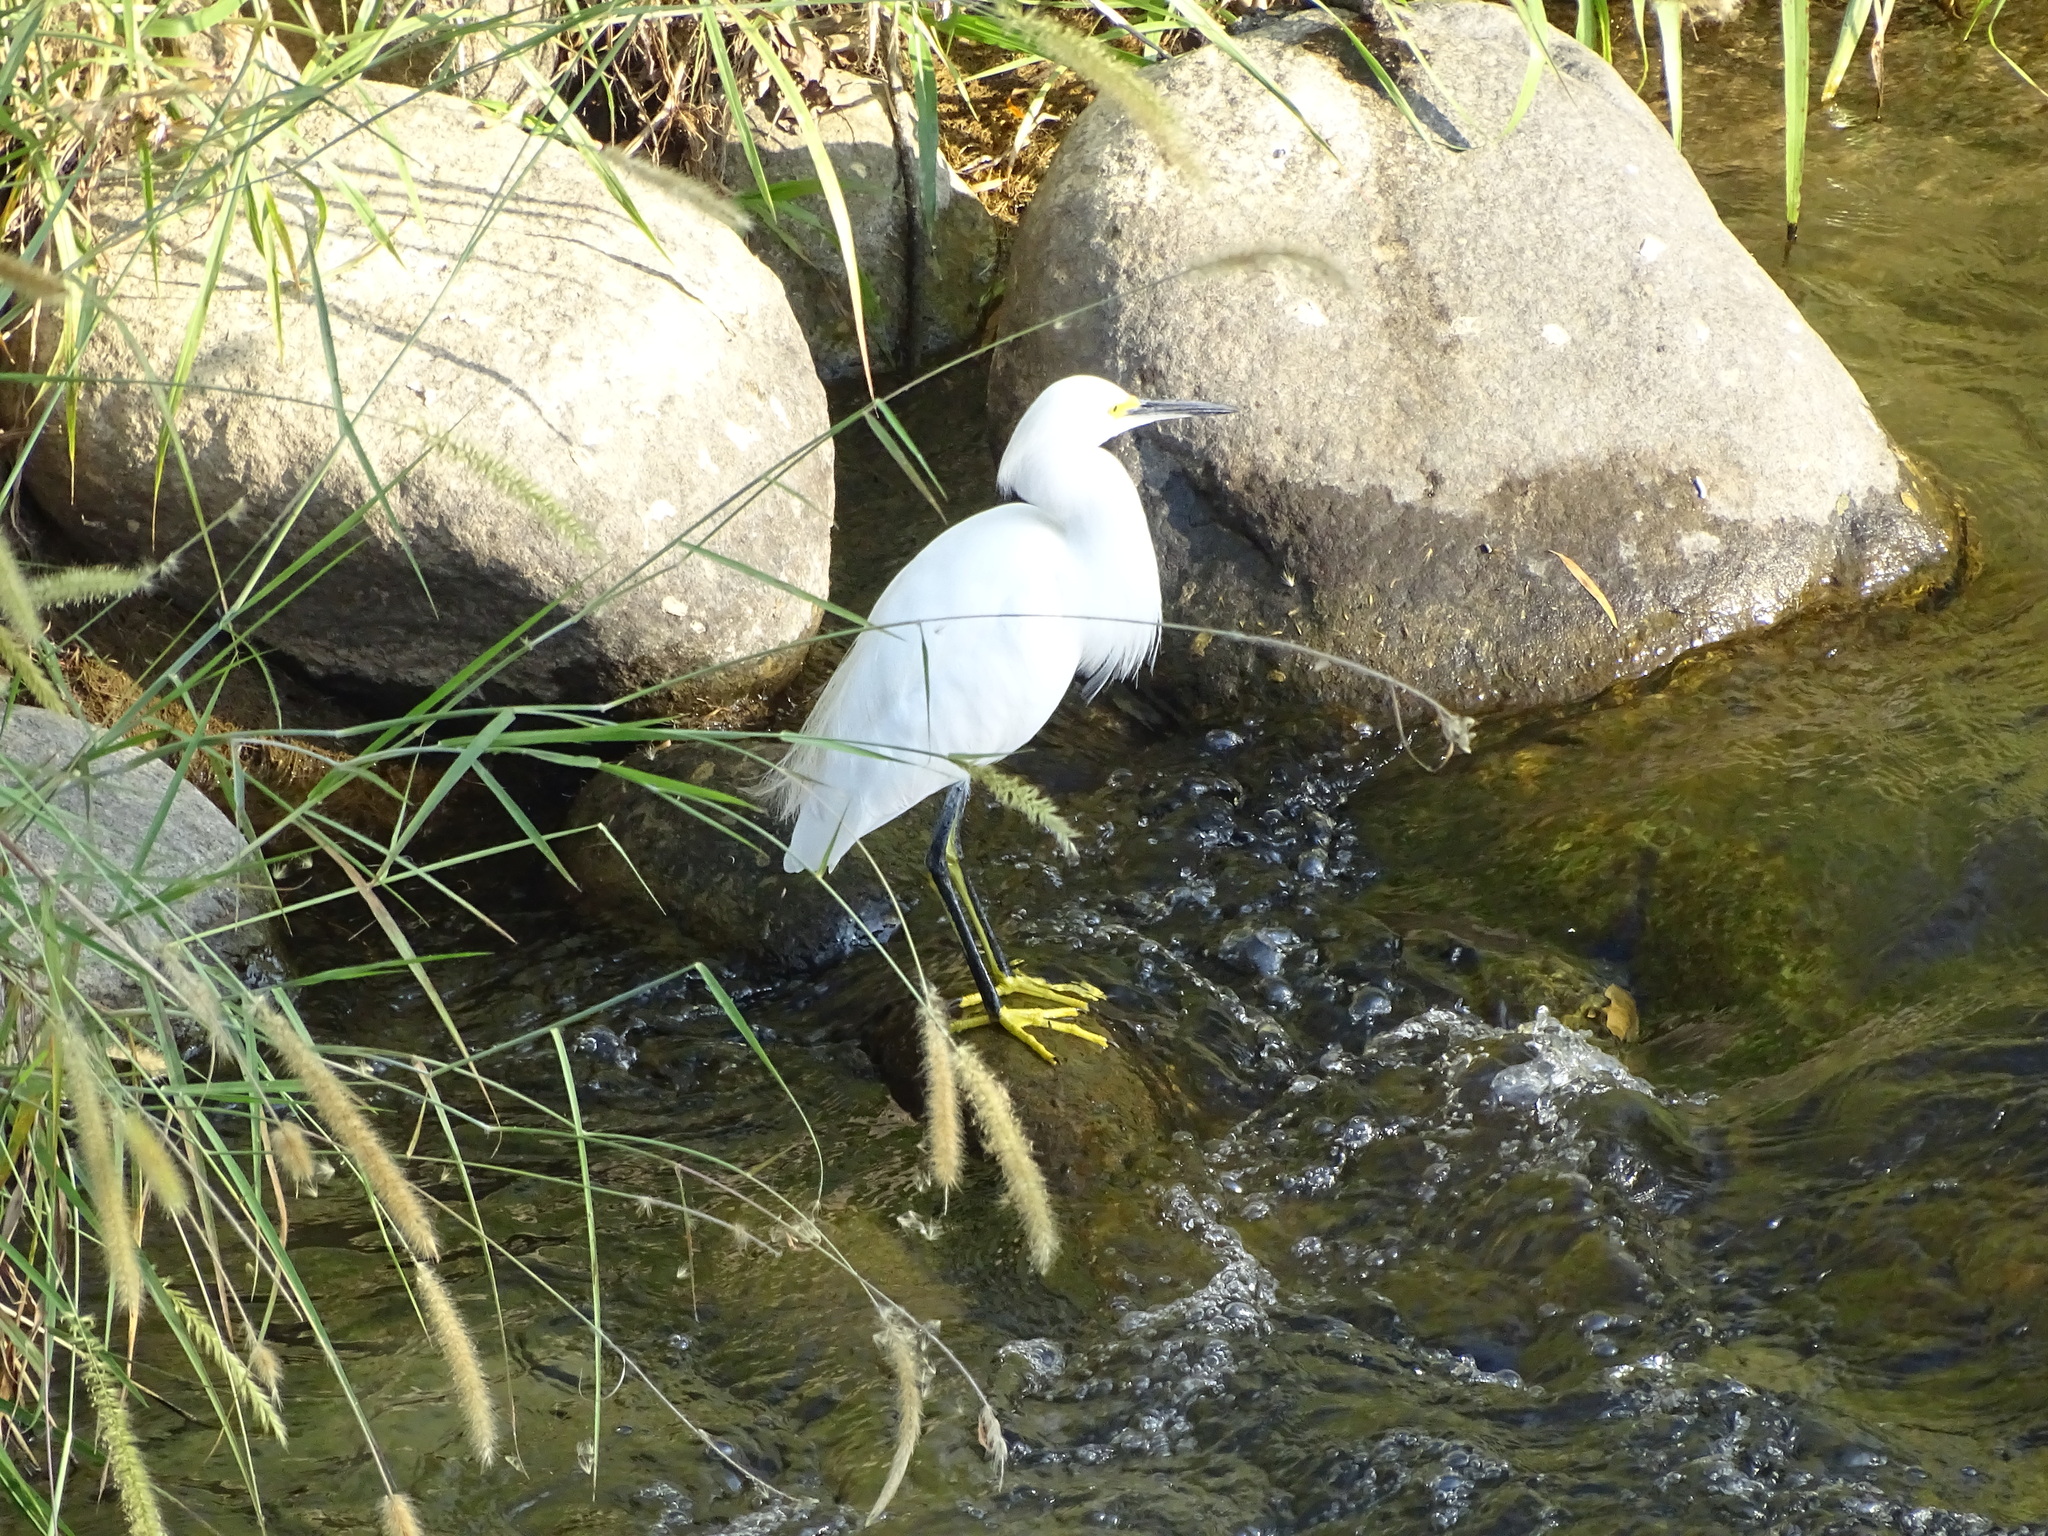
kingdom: Animalia
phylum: Chordata
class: Aves
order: Pelecaniformes
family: Ardeidae
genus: Egretta
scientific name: Egretta thula
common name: Snowy egret
